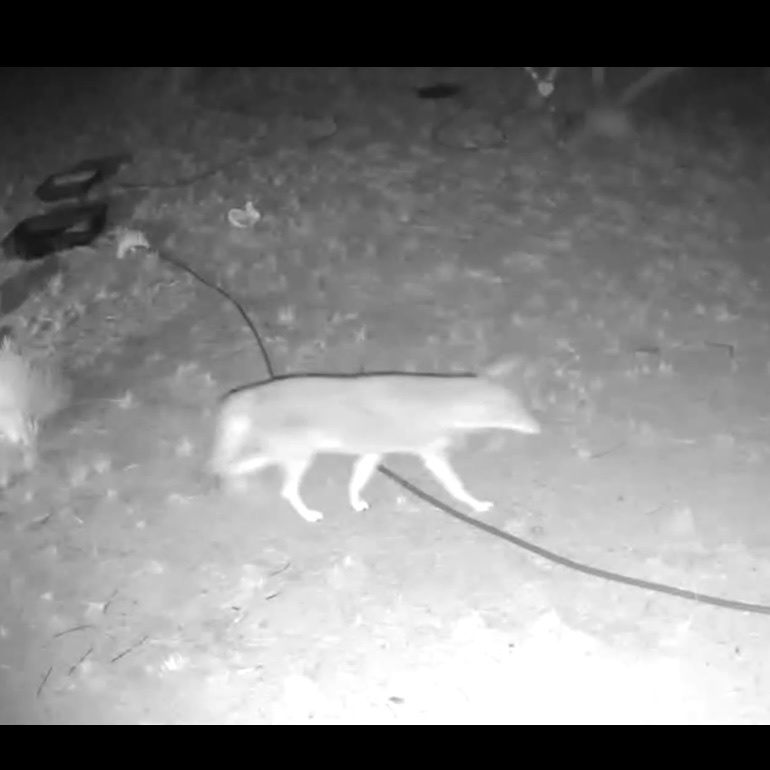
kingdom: Animalia
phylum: Chordata
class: Mammalia
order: Carnivora
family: Canidae
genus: Canis
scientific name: Canis latrans
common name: Coyote
